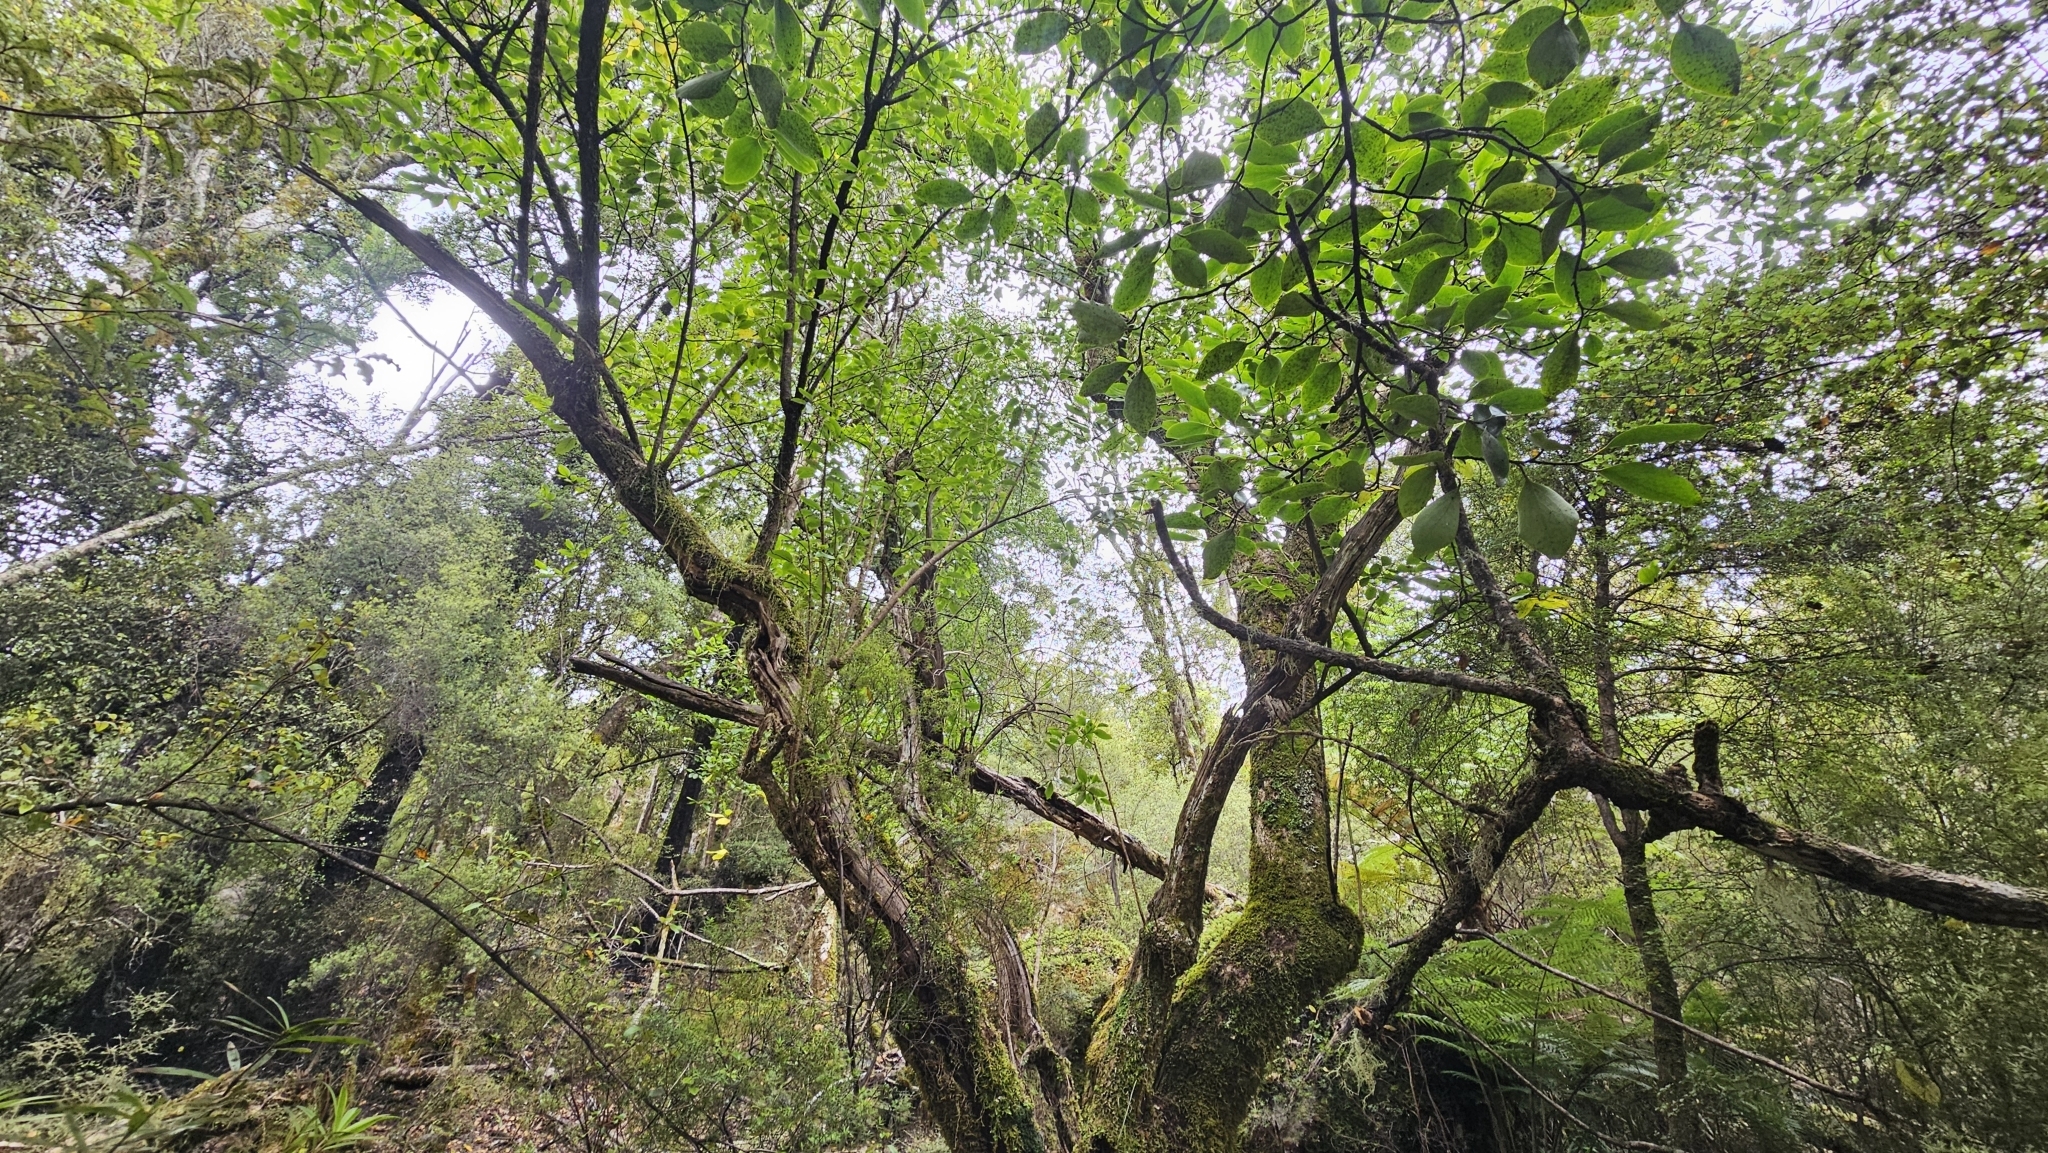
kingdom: Plantae
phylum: Tracheophyta
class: Magnoliopsida
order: Apiales
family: Griseliniaceae
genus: Griselinia
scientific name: Griselinia littoralis
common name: New zealand broadleaf
